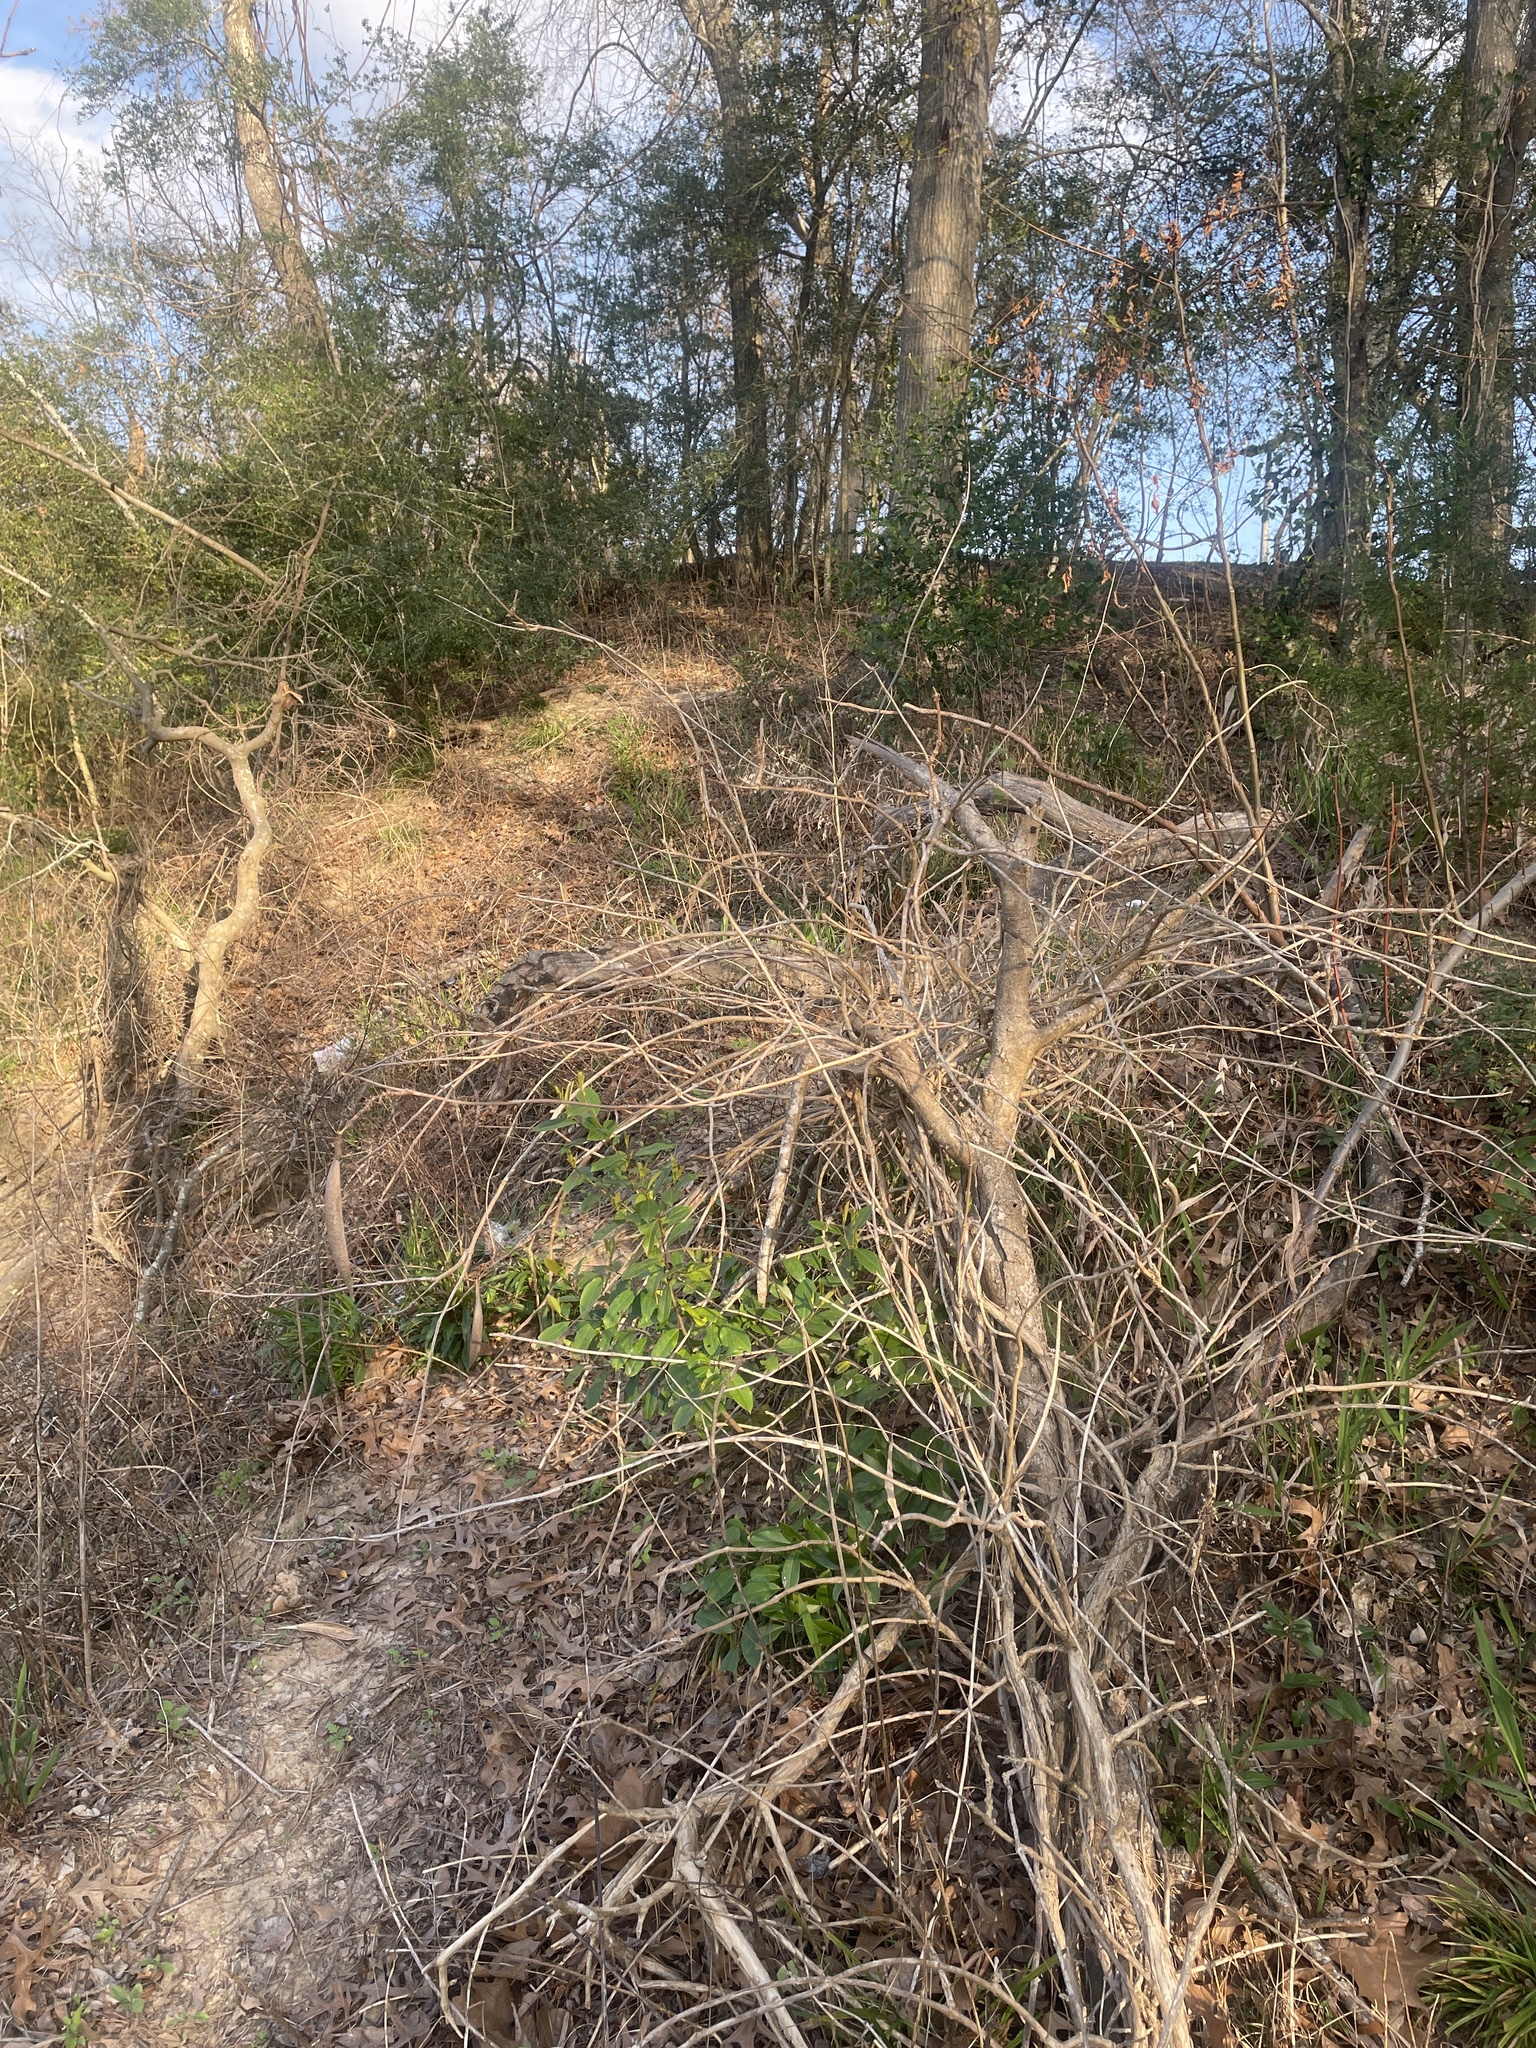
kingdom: Plantae
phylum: Tracheophyta
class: Magnoliopsida
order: Lamiales
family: Bignoniaceae
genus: Campsis
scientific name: Campsis radicans
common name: Trumpet-creeper
